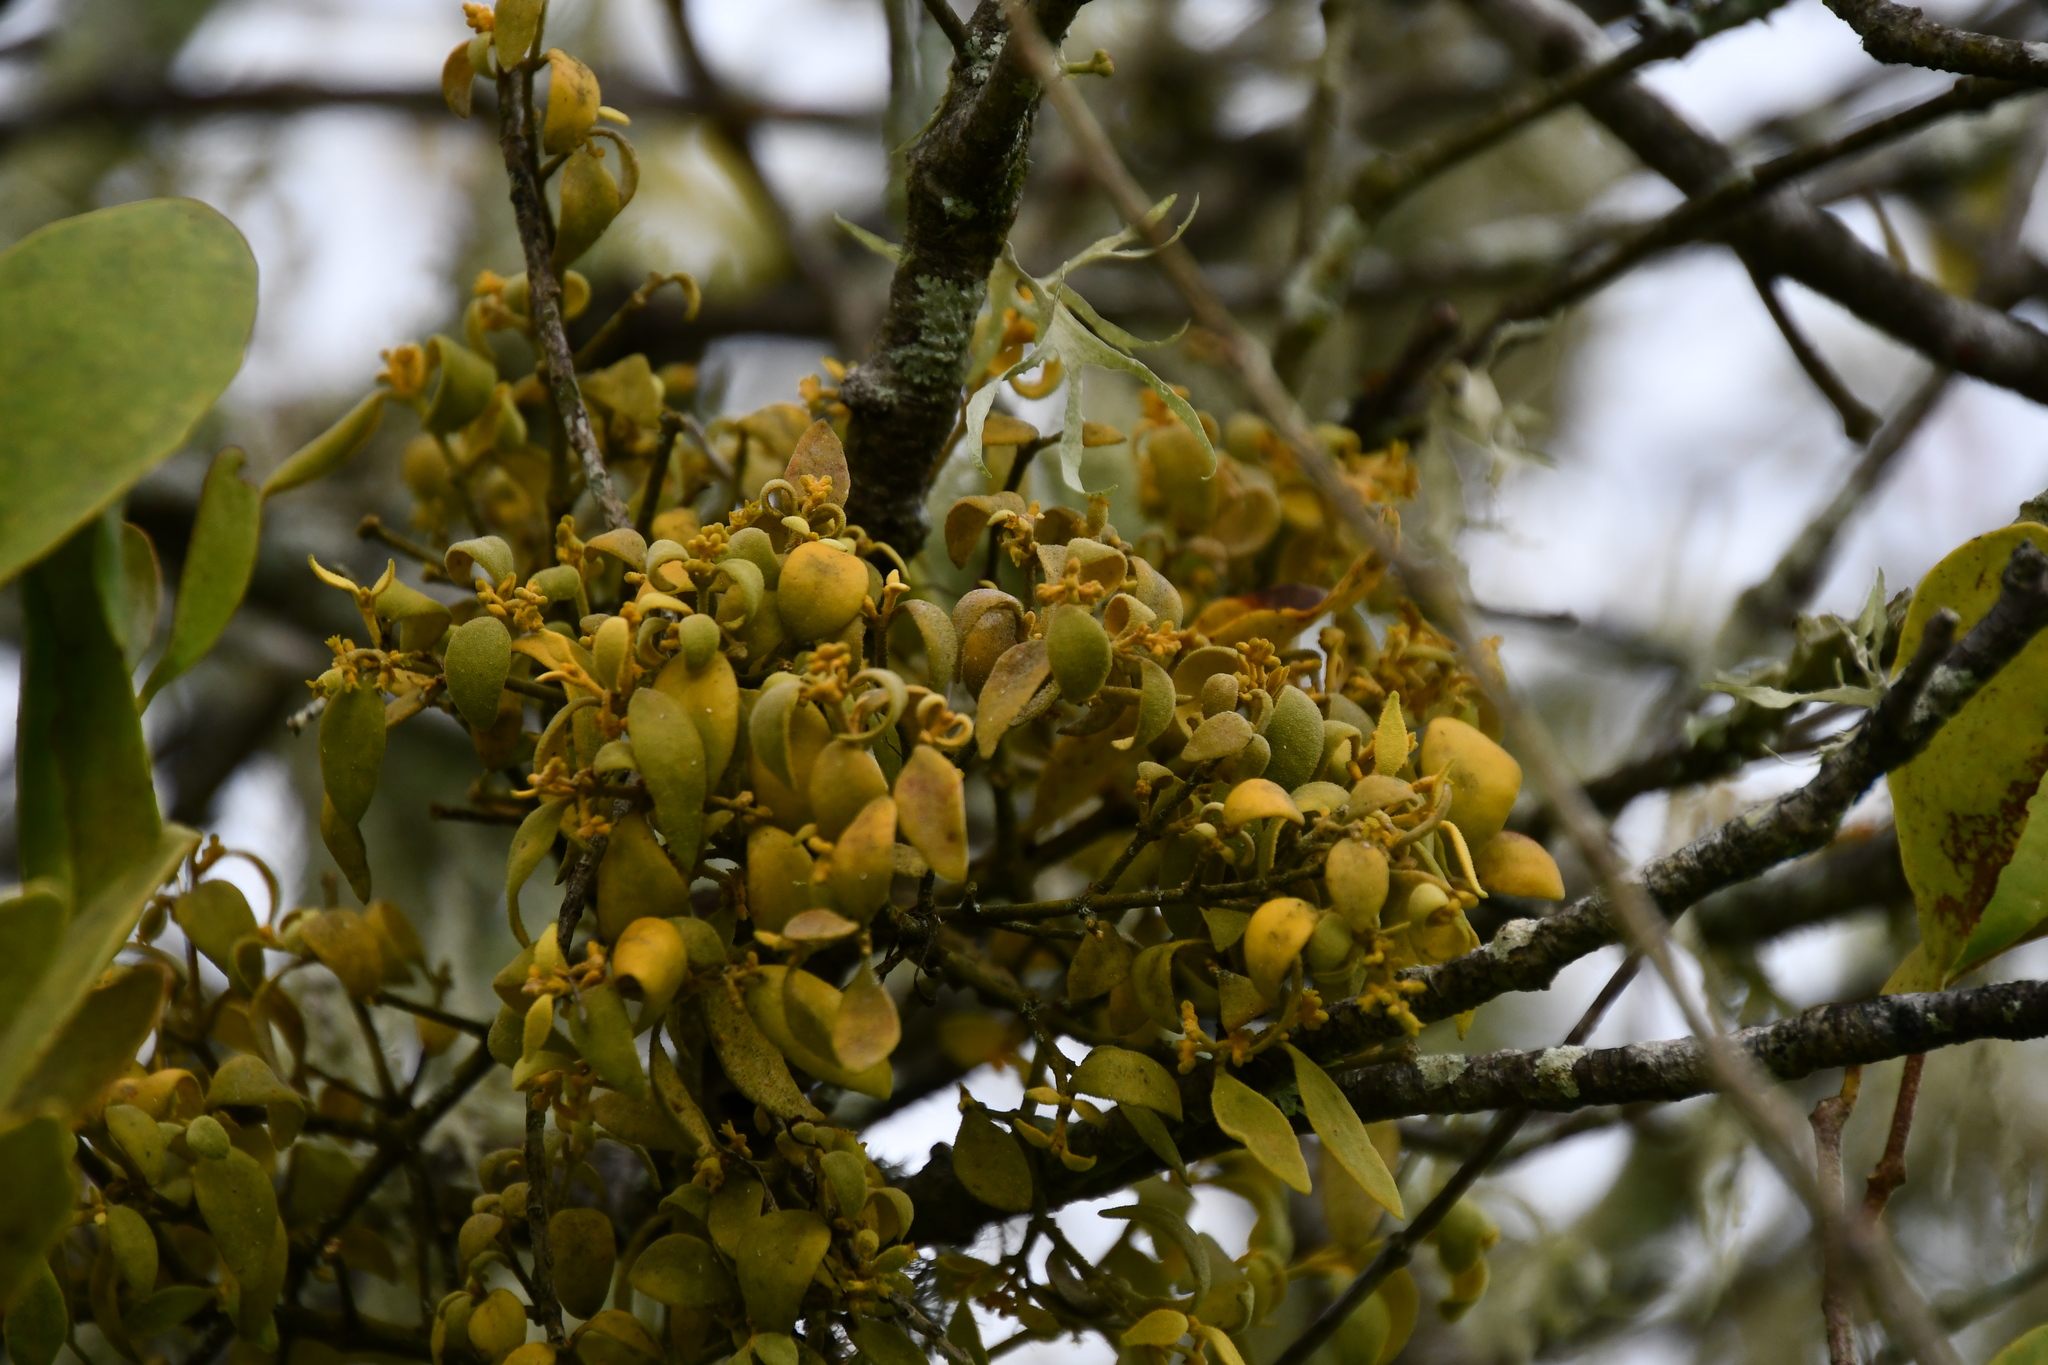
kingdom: Plantae
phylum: Tracheophyta
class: Magnoliopsida
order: Santalales
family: Viscaceae
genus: Notothixos
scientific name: Notothixos subaureus
